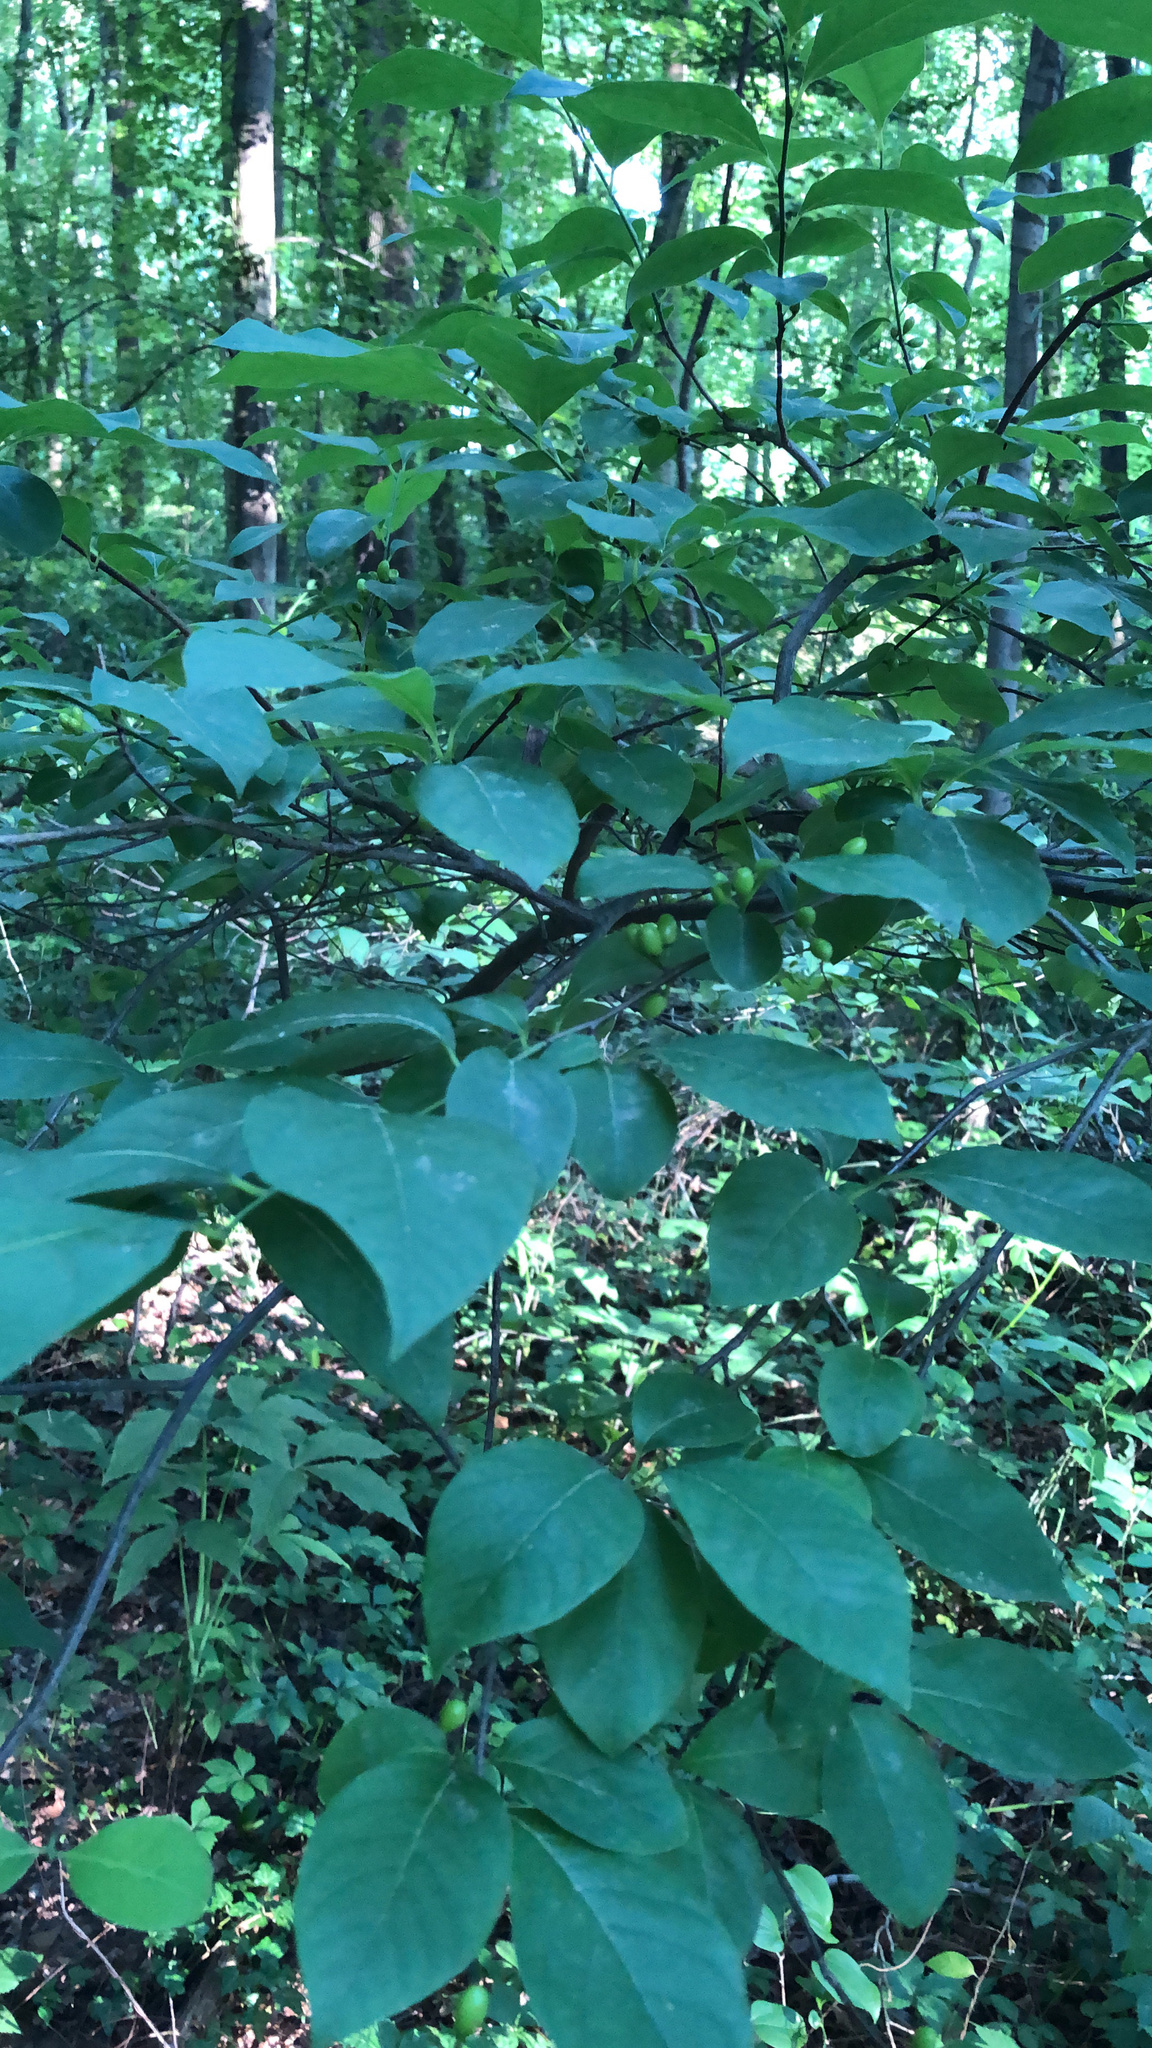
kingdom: Plantae
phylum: Tracheophyta
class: Magnoliopsida
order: Laurales
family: Lauraceae
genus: Lindera
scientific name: Lindera benzoin
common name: Spicebush
